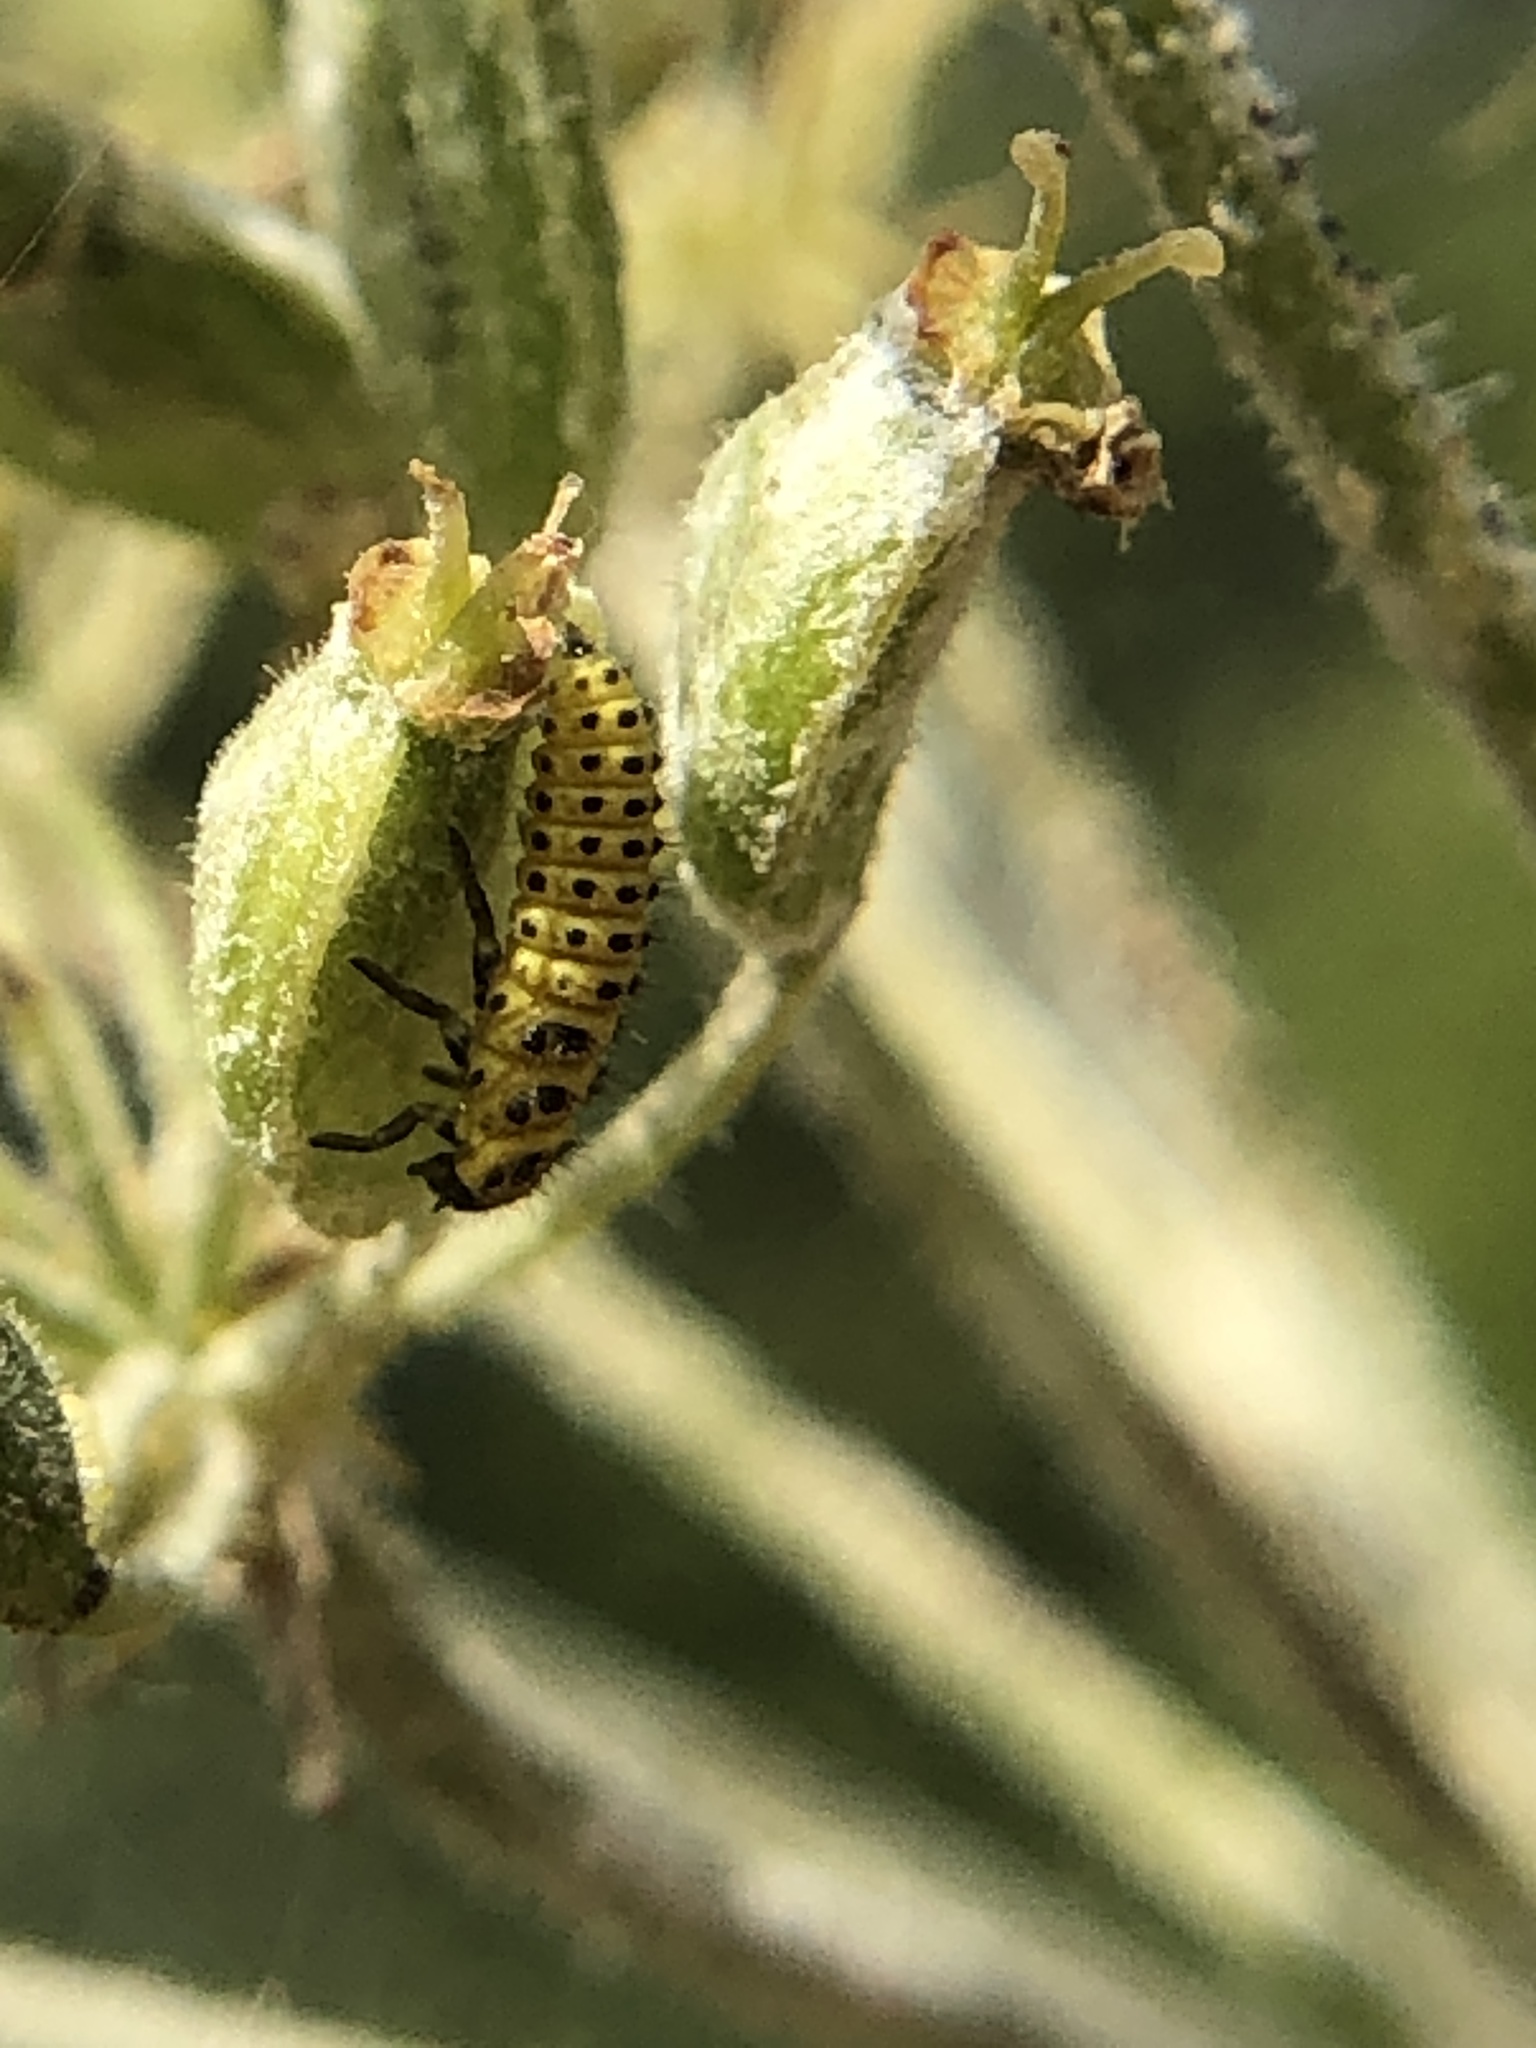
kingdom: Animalia
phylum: Arthropoda
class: Insecta
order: Coleoptera
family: Coccinellidae
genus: Psyllobora
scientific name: Psyllobora vigintiduopunctata
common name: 22-spot ladybird
